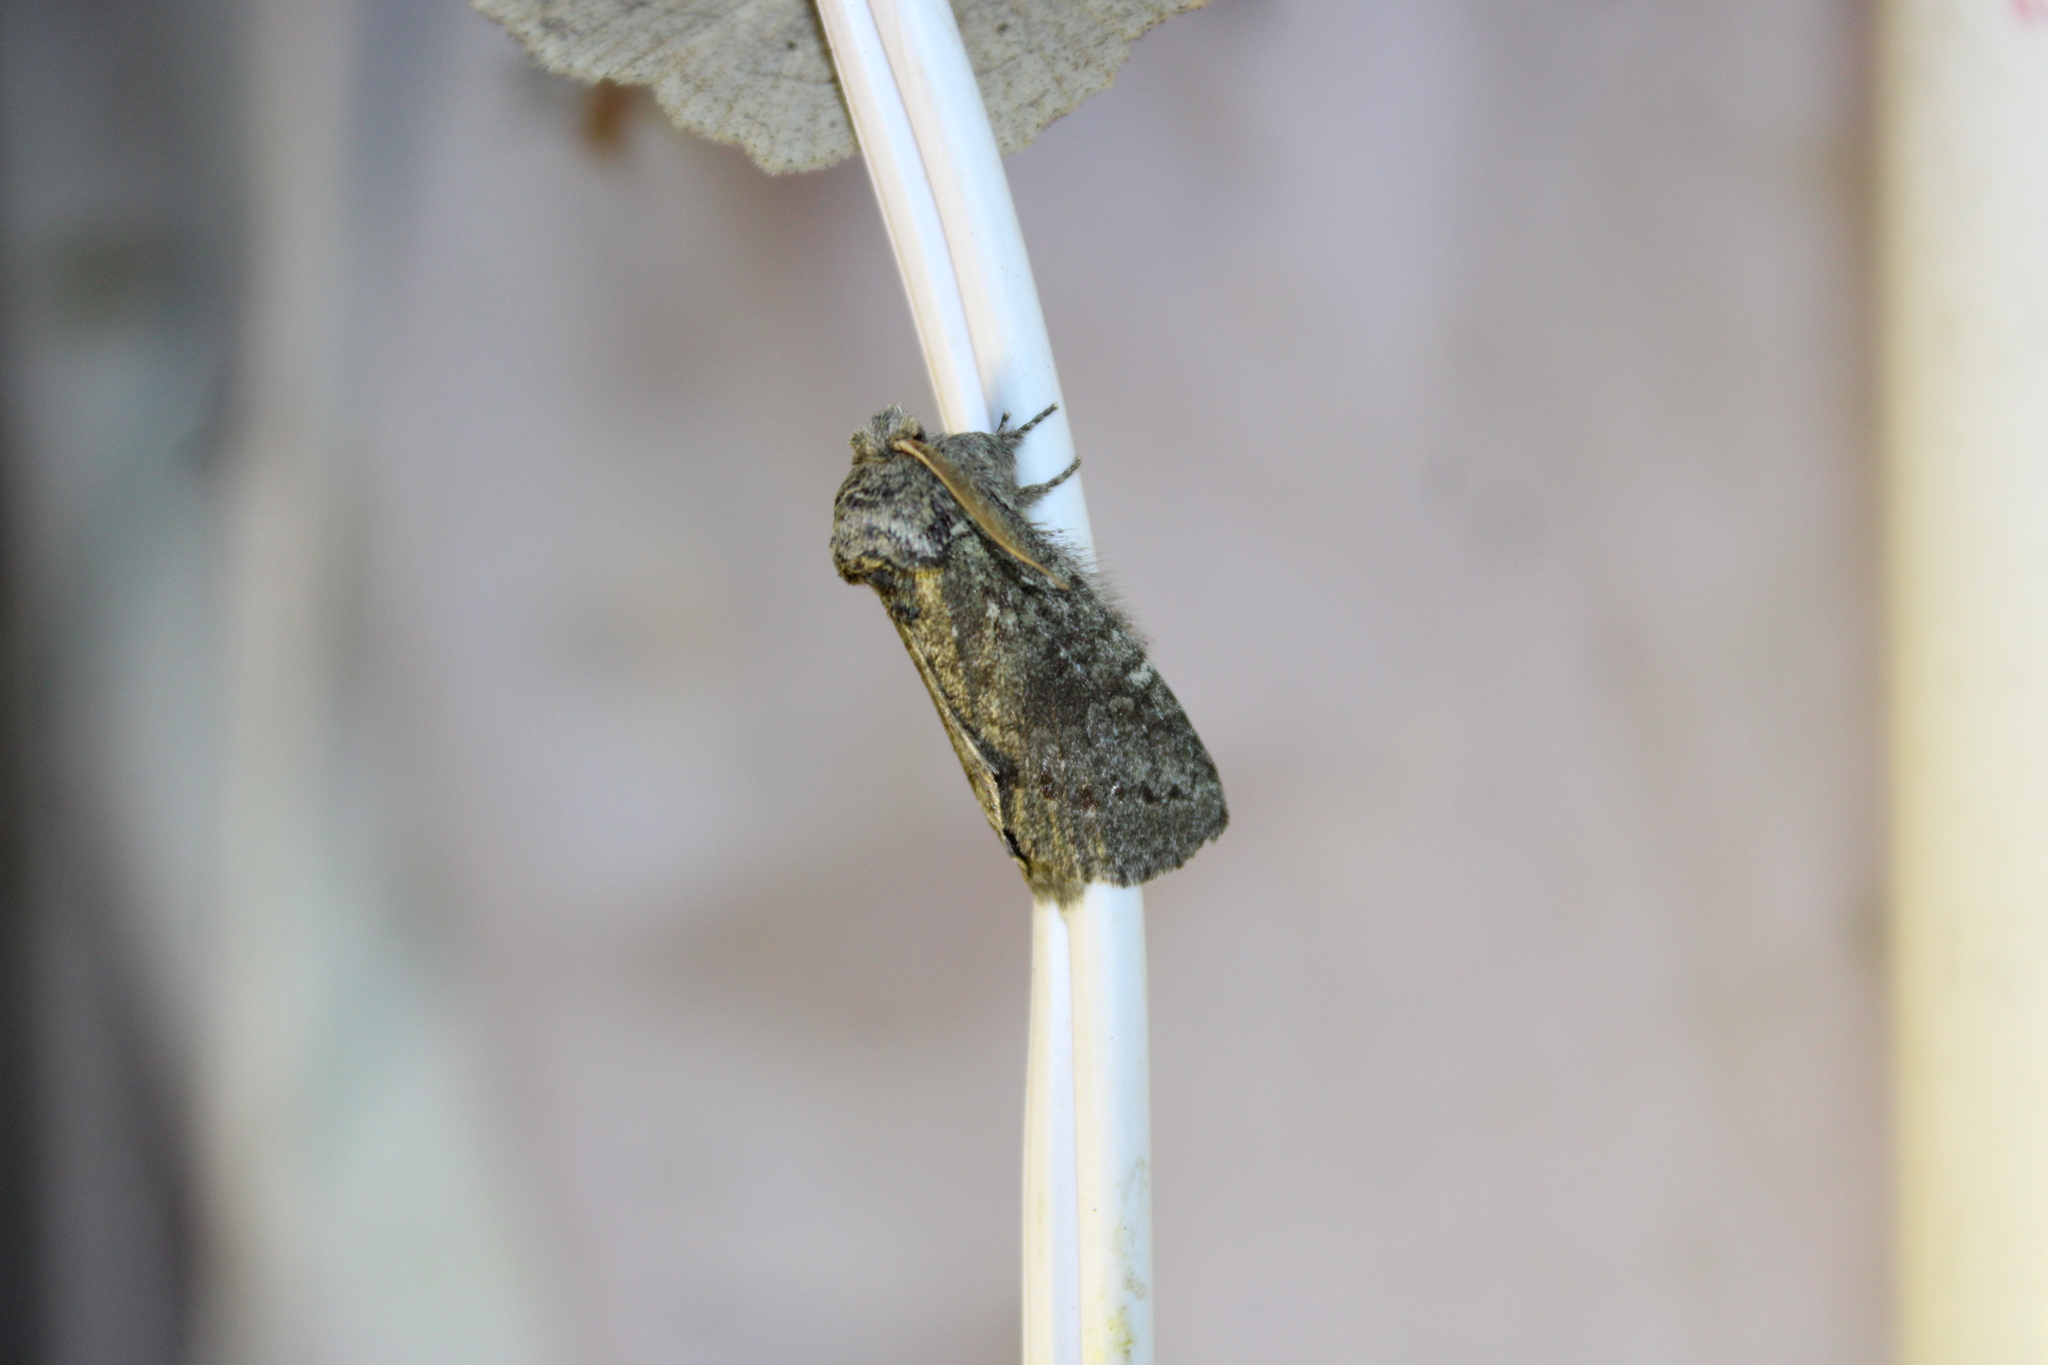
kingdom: Animalia
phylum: Arthropoda
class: Insecta
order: Lepidoptera
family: Notodontidae
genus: Disphragis
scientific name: Disphragis Cecrita guttivitta
